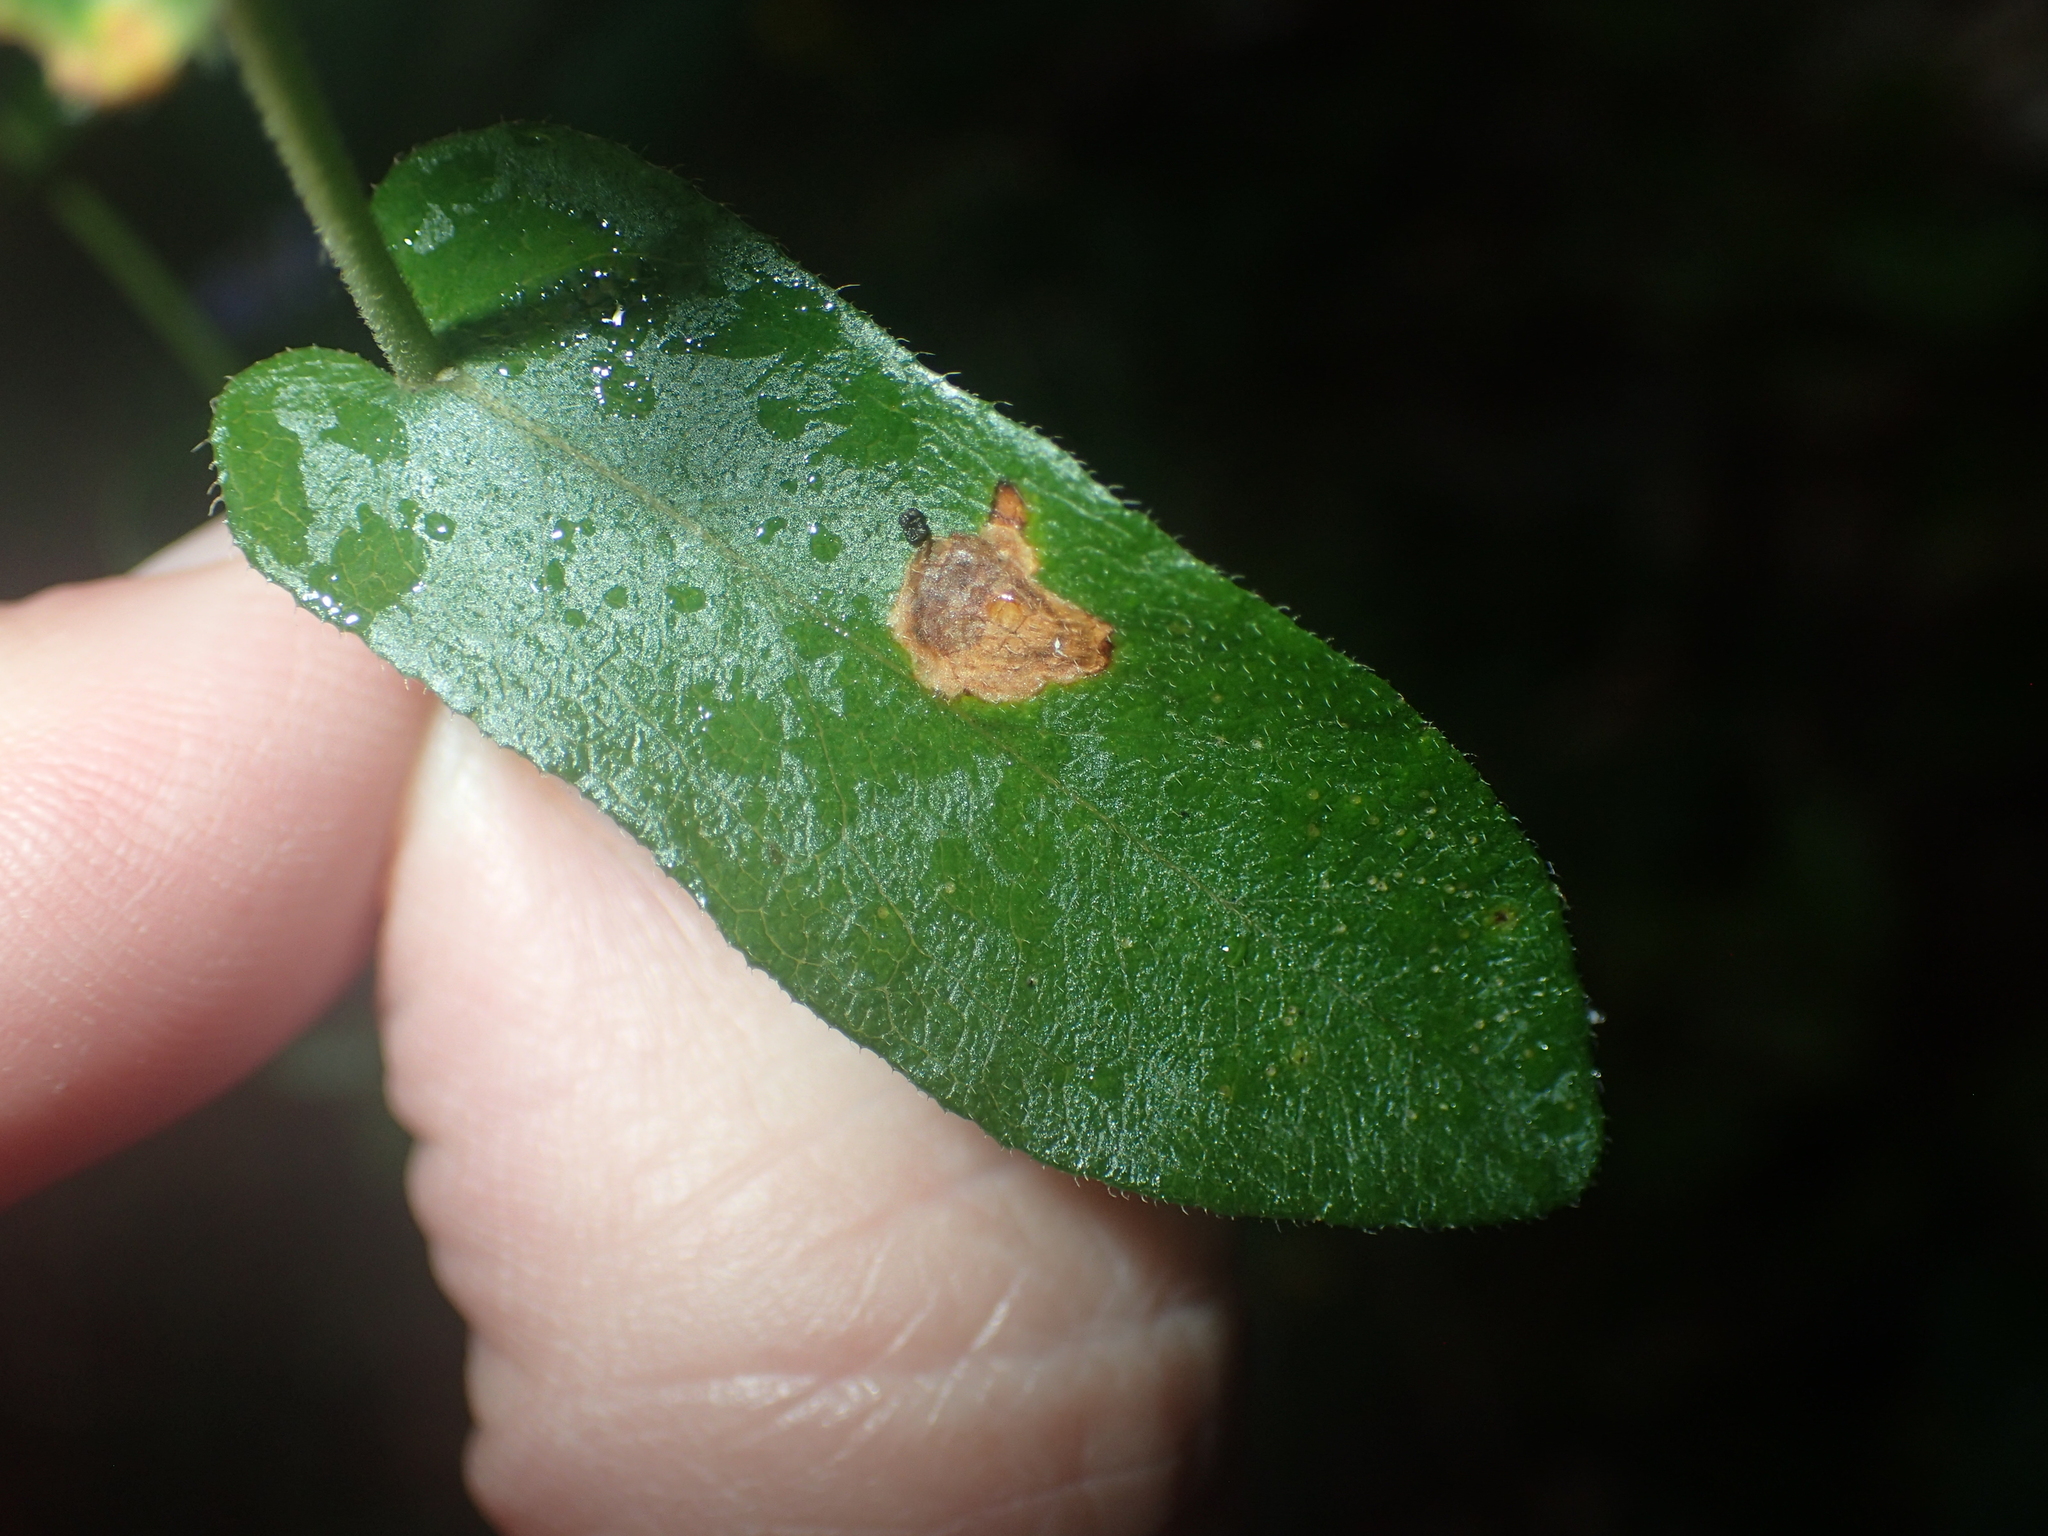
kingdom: Plantae
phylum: Tracheophyta
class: Magnoliopsida
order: Asterales
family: Asteraceae
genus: Symphyotrichum
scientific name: Symphyotrichum patens
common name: Late purple aster
